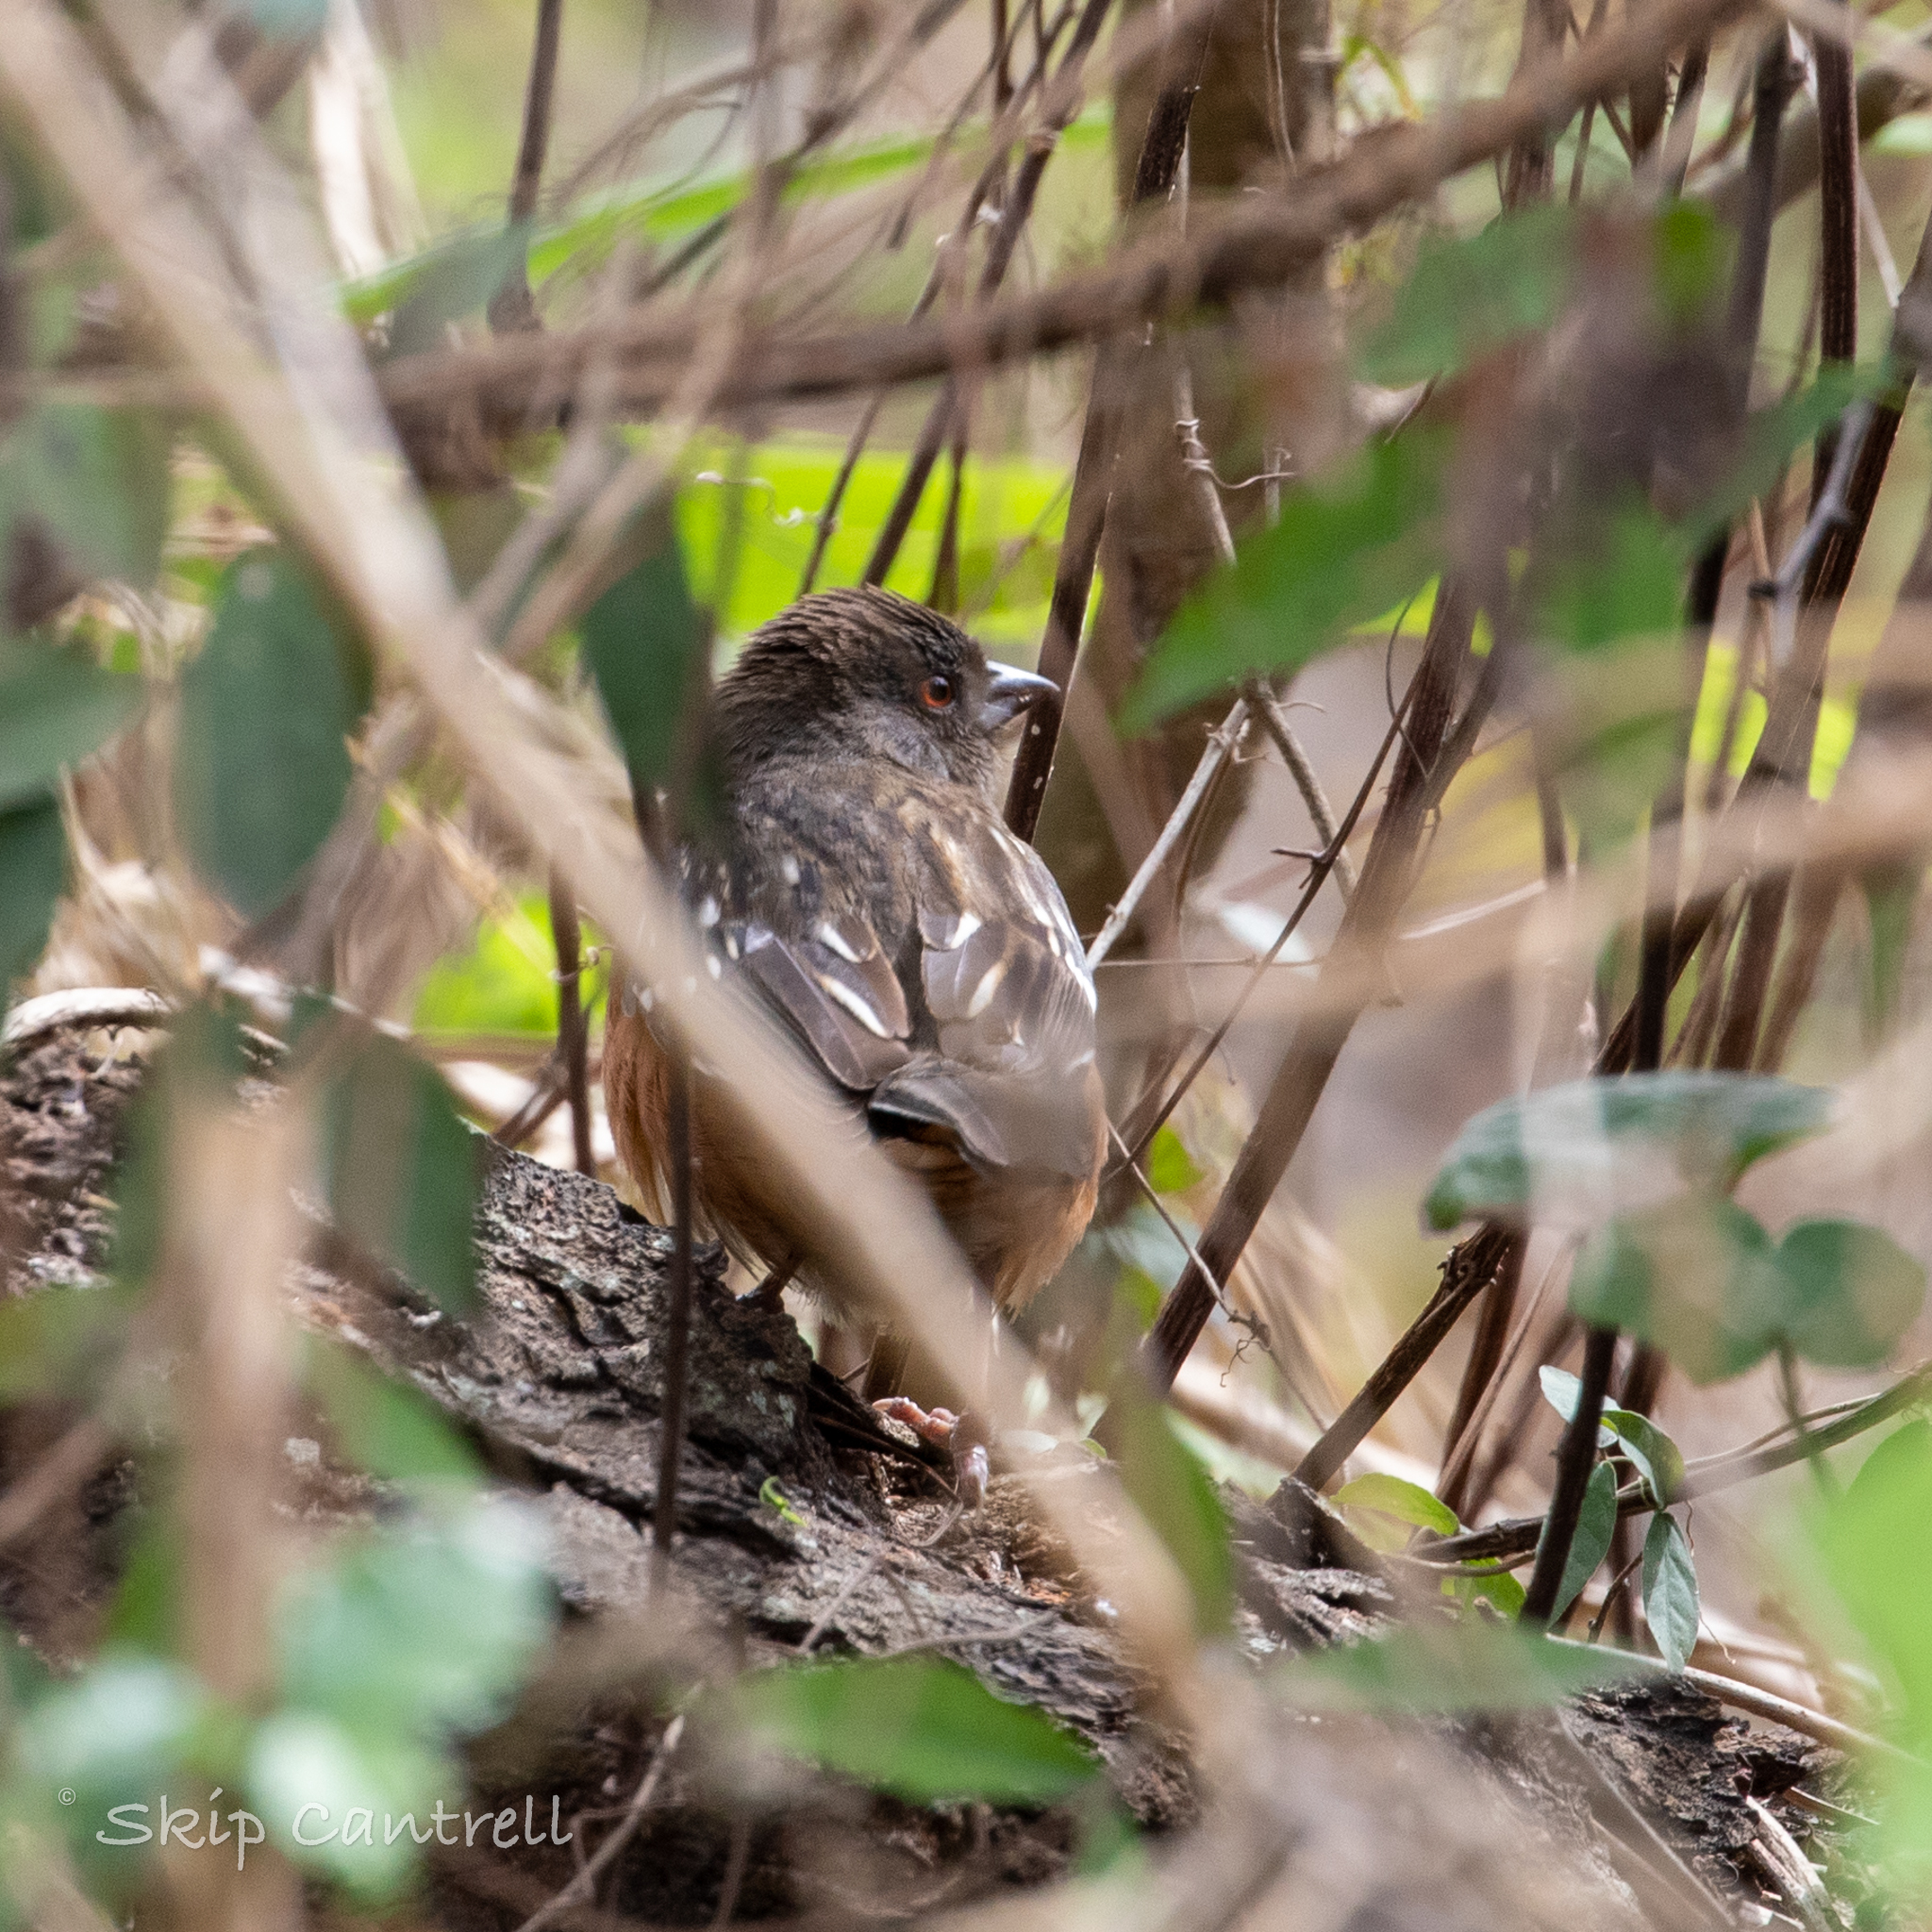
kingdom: Animalia
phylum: Chordata
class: Aves
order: Passeriformes
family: Passerellidae
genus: Pipilo
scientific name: Pipilo maculatus
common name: Spotted towhee
